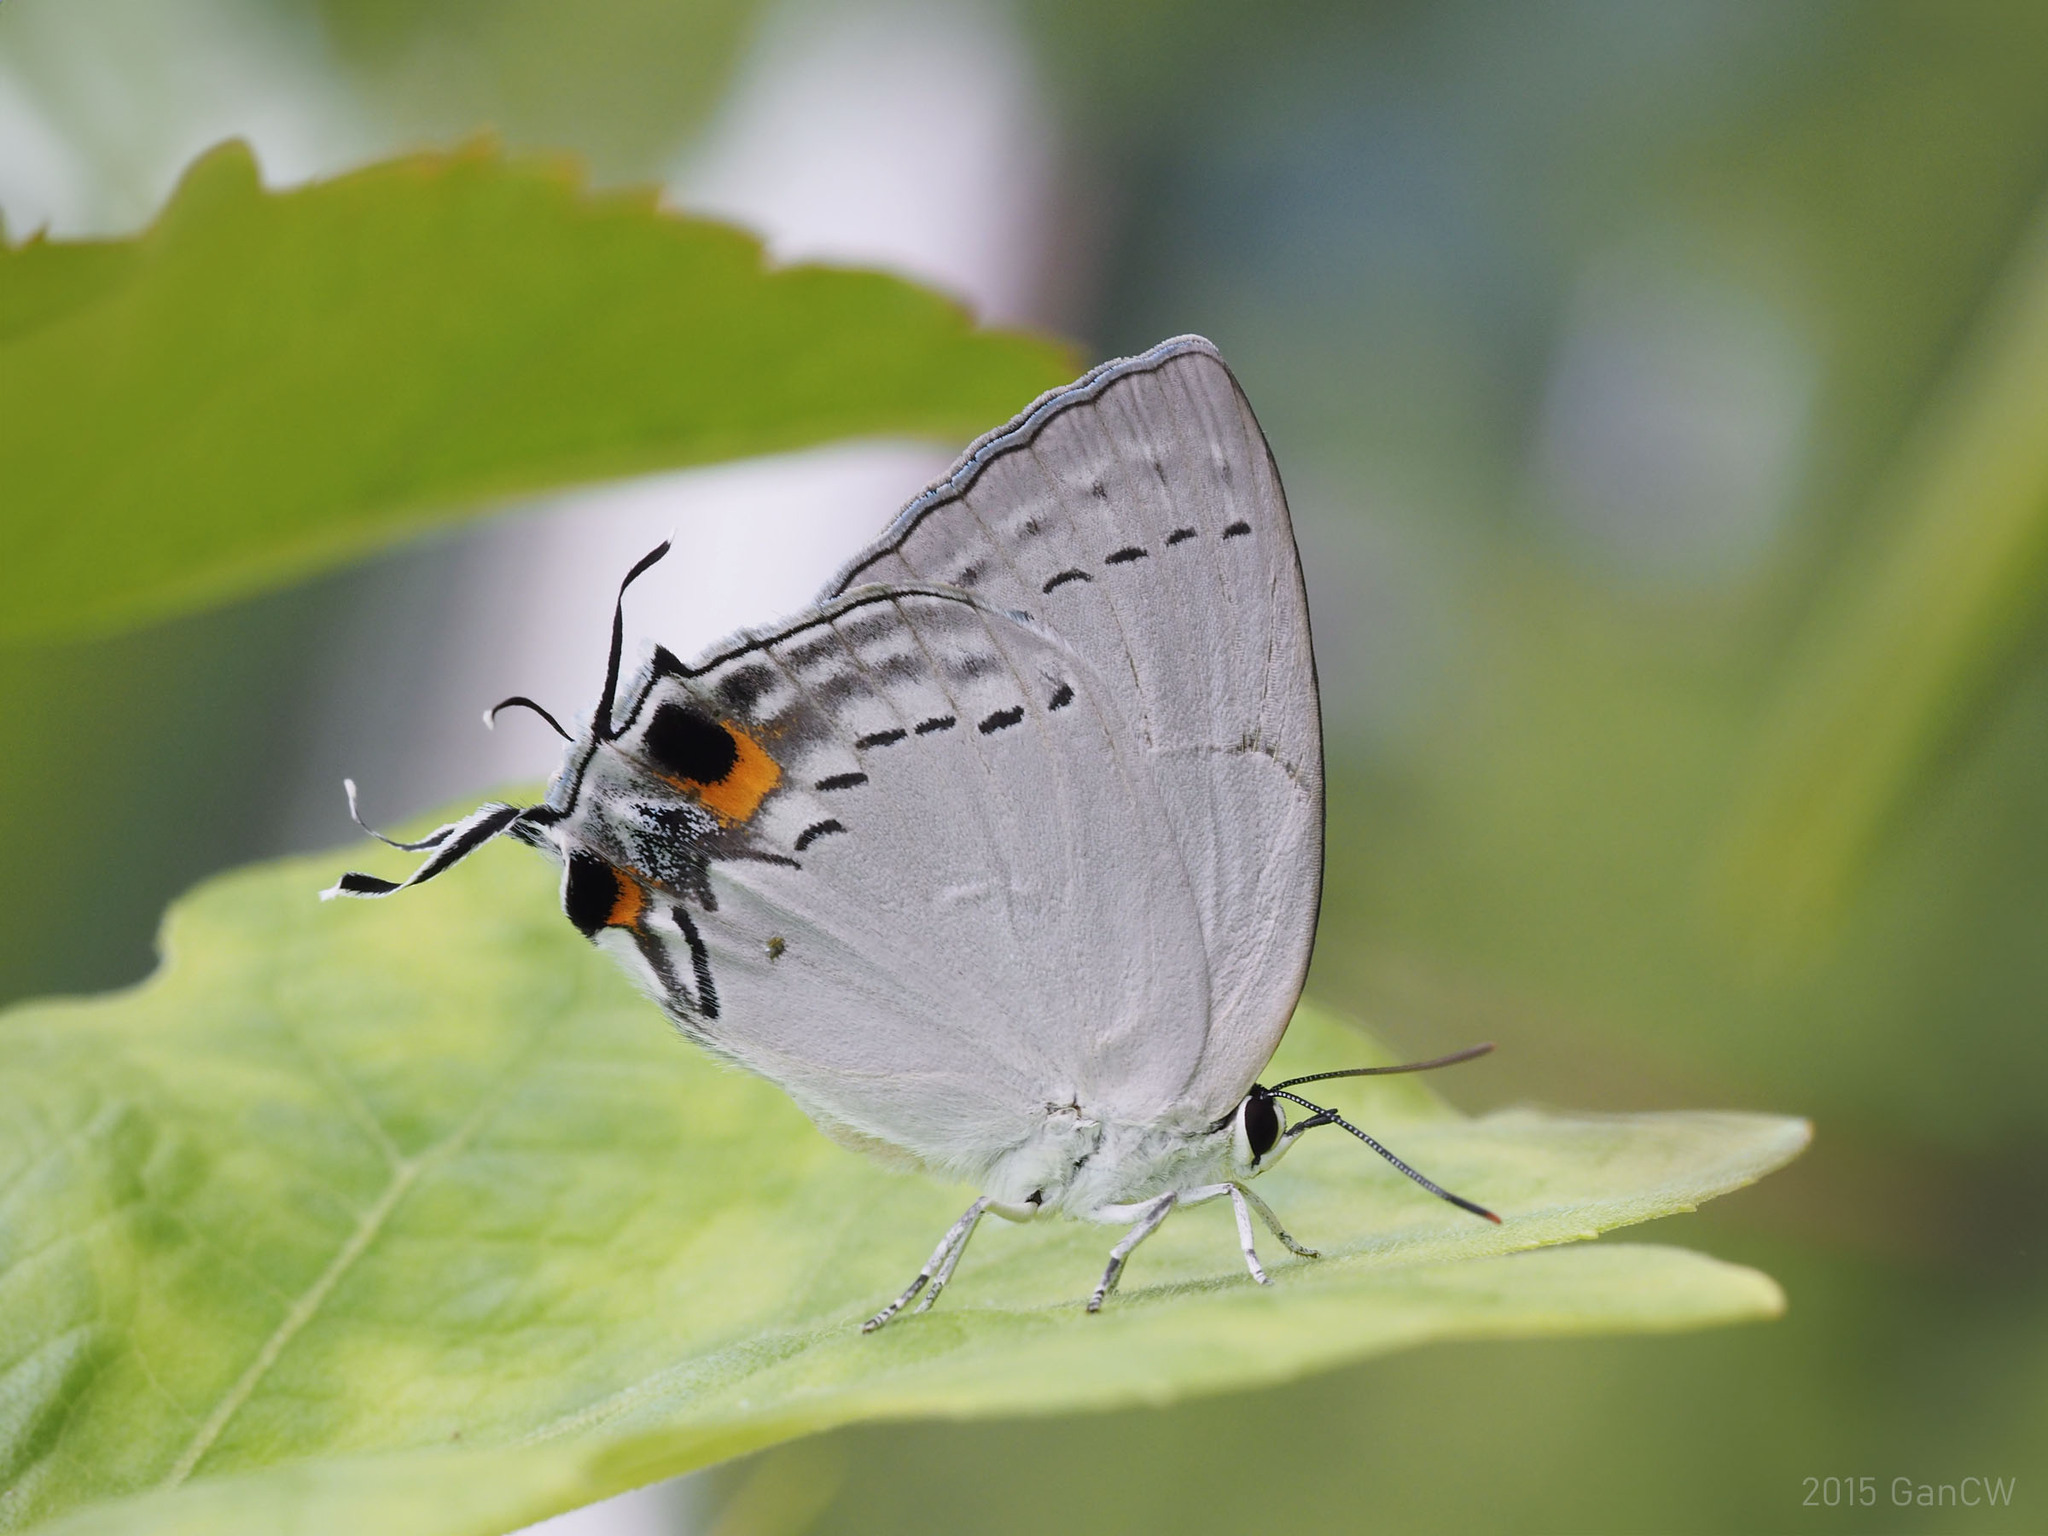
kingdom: Animalia
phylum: Arthropoda
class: Insecta
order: Lepidoptera
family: Lycaenidae
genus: Tajuria
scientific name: Tajuria cippus
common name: Peacock royal
